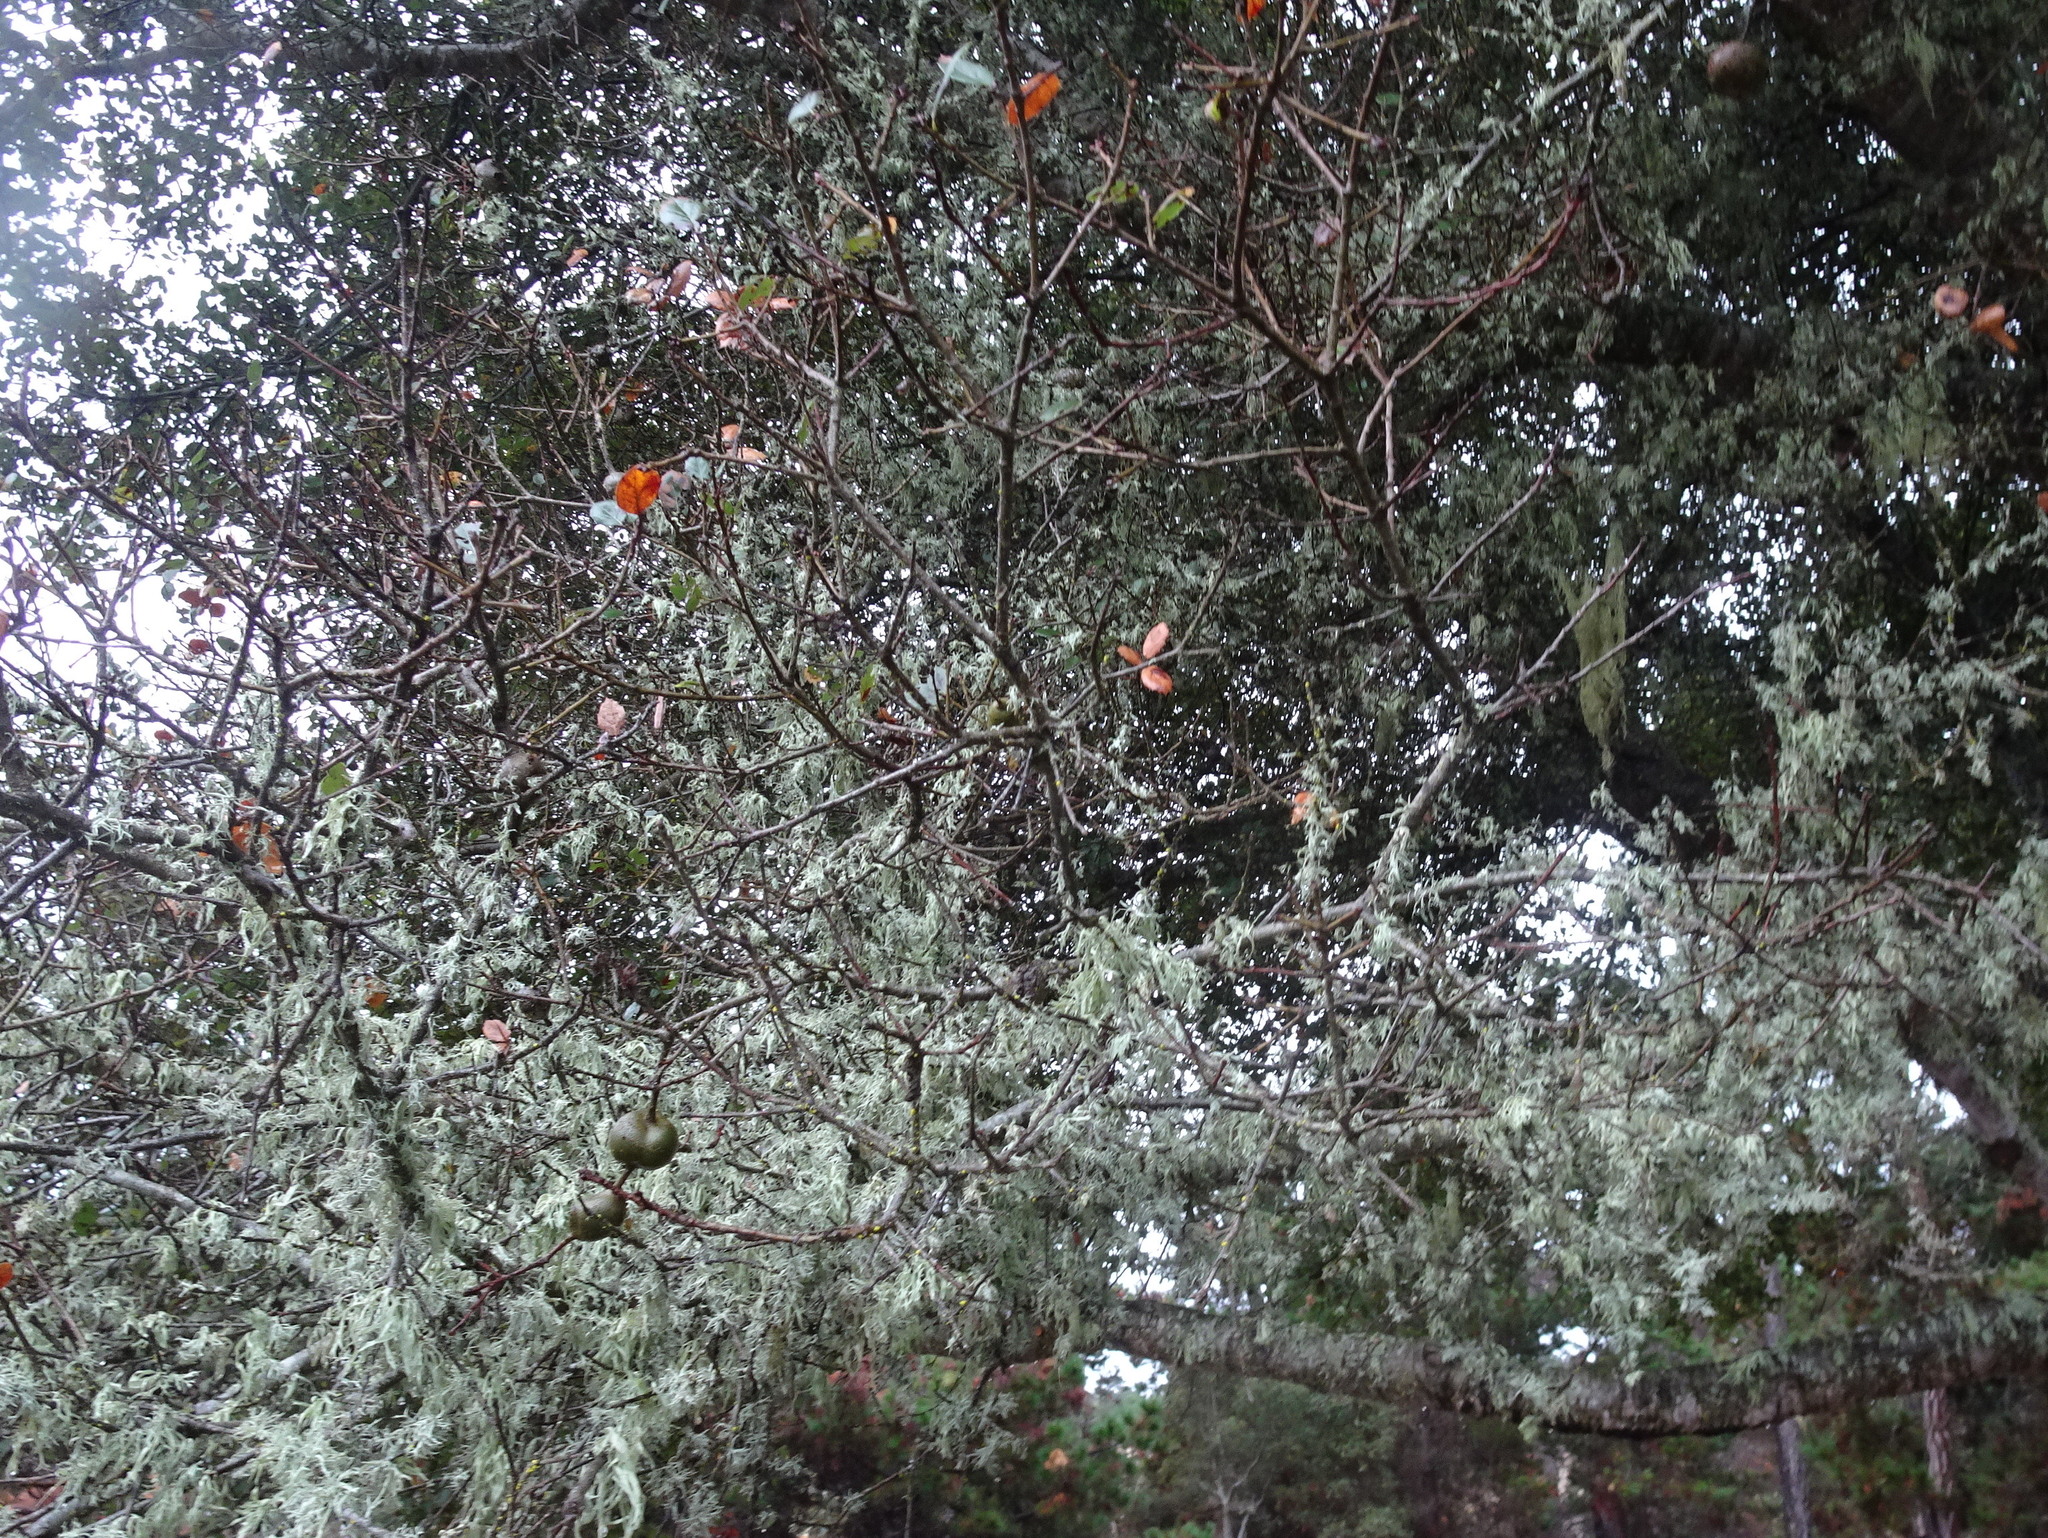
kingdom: Animalia
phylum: Arthropoda
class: Insecta
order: Hymenoptera
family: Cynipidae
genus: Callirhytis
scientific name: Callirhytis
